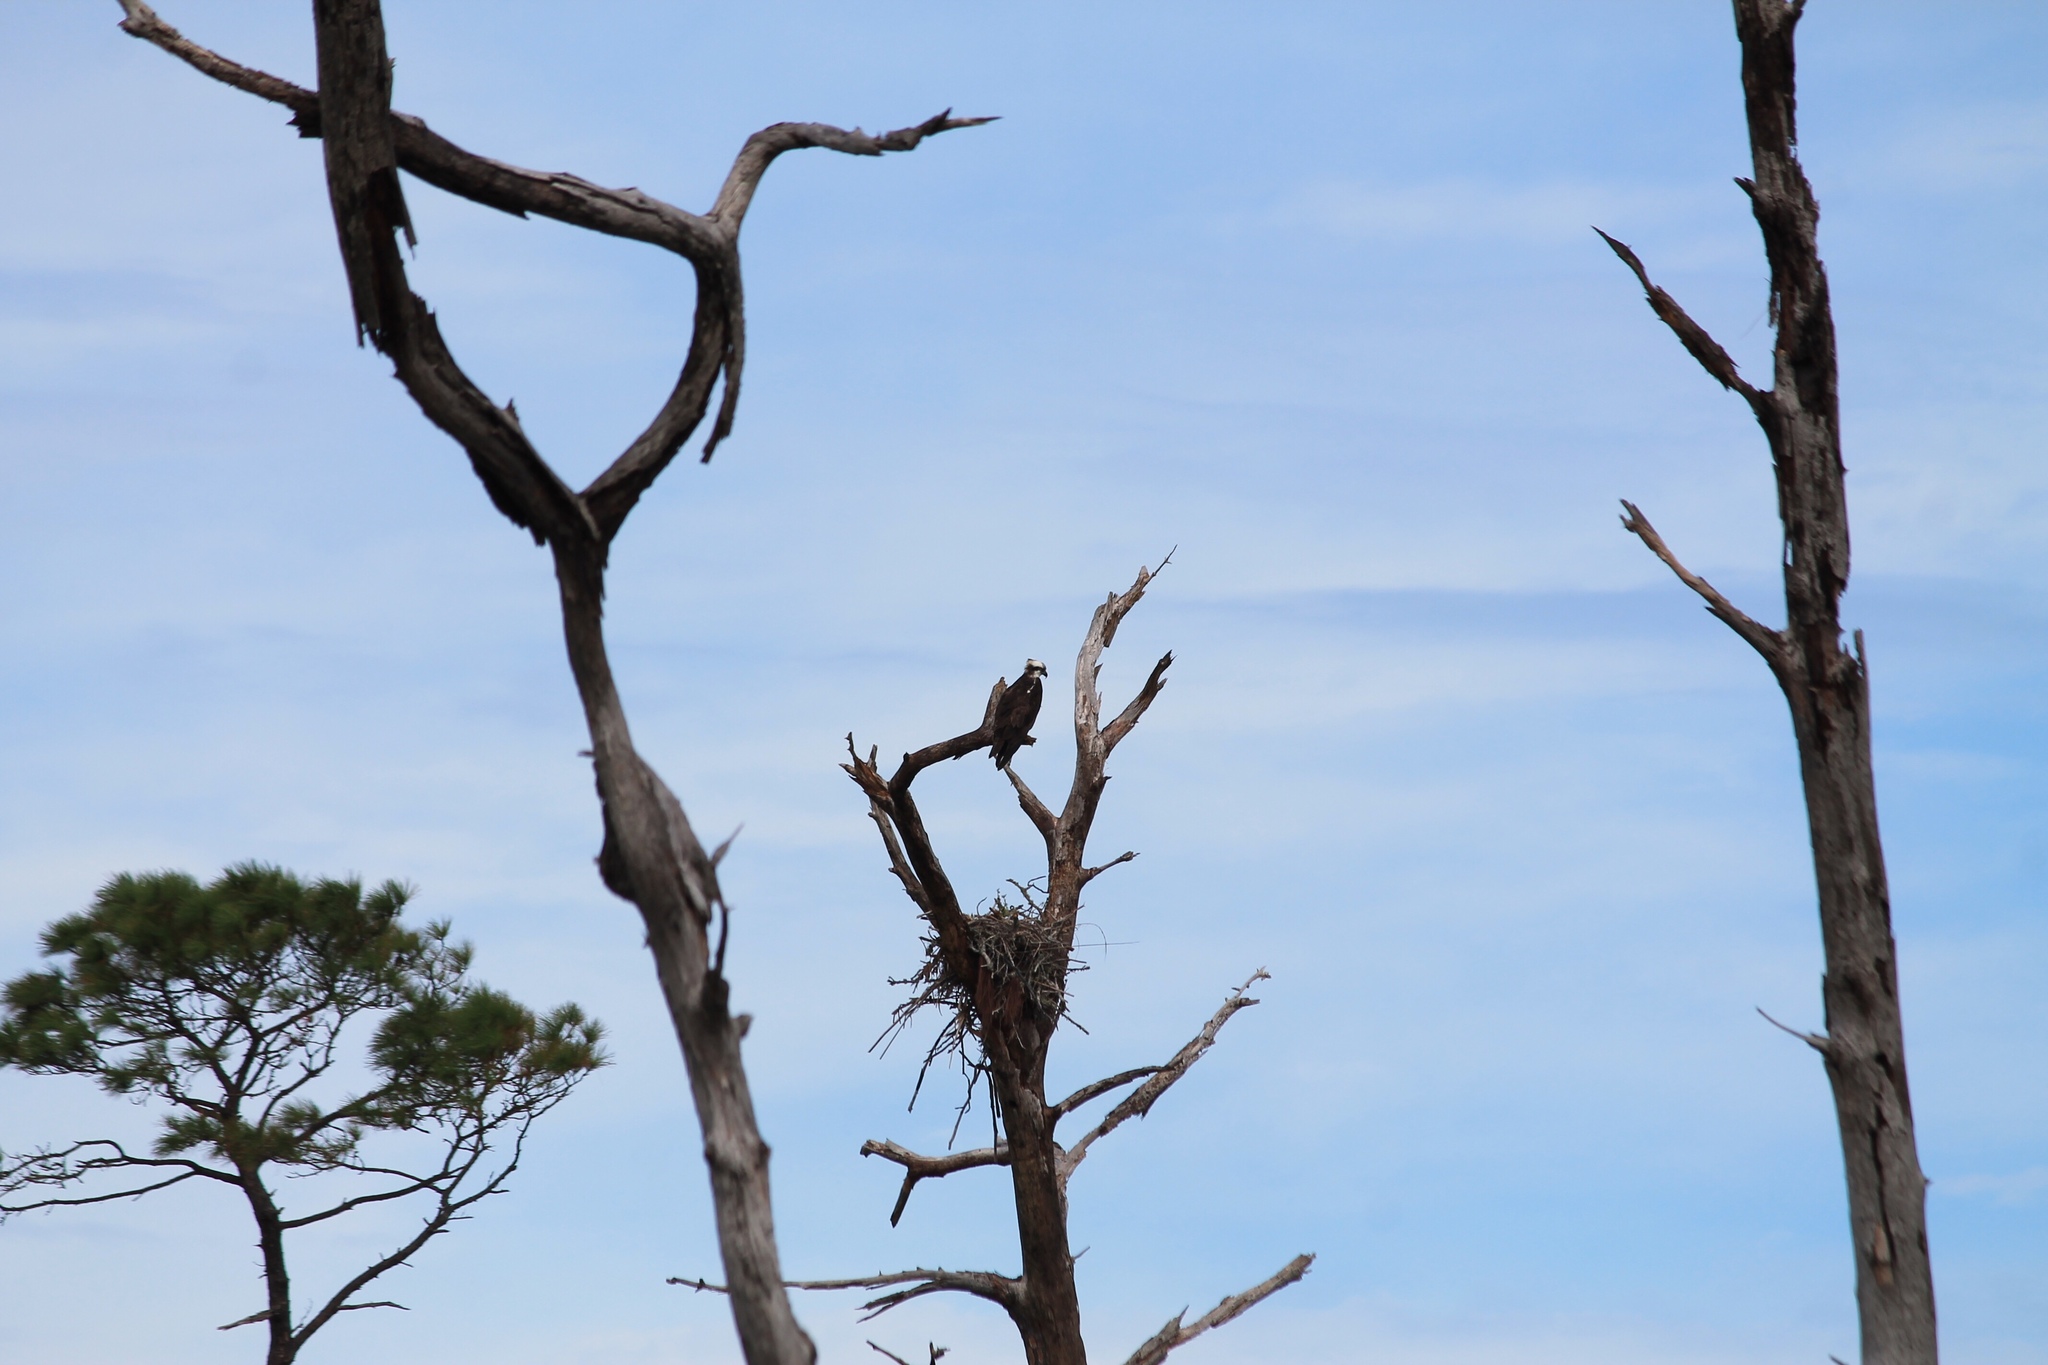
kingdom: Animalia
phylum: Chordata
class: Aves
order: Accipitriformes
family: Pandionidae
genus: Pandion
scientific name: Pandion haliaetus
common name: Osprey
